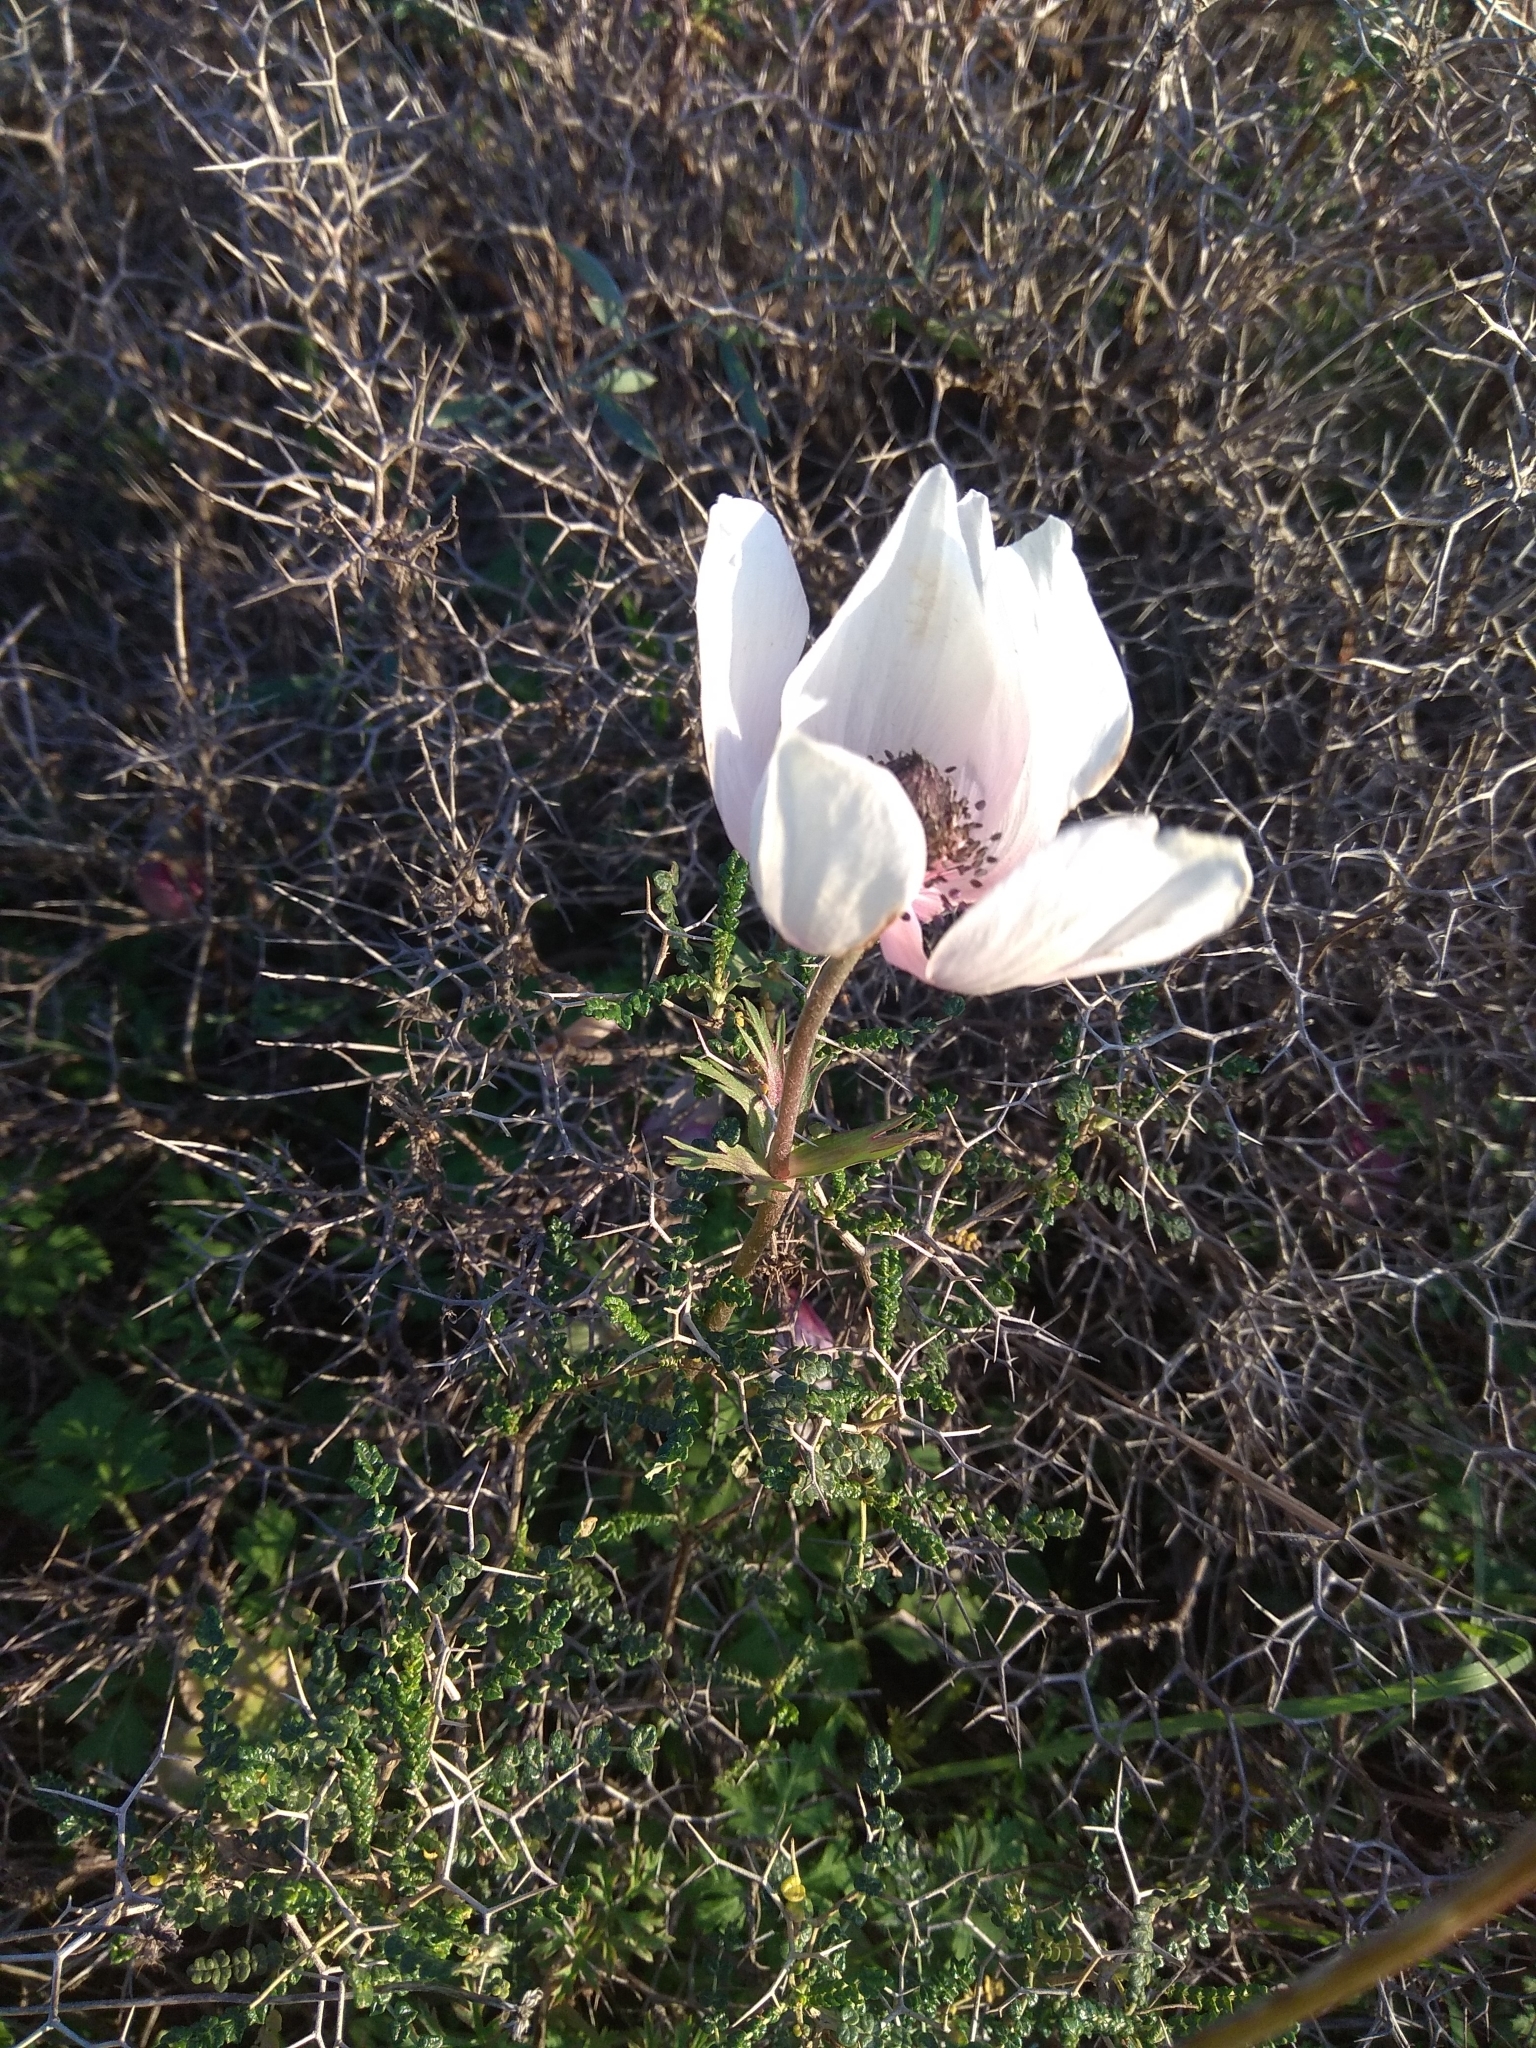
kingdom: Plantae
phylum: Tracheophyta
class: Magnoliopsida
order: Ranunculales
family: Ranunculaceae
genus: Anemone
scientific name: Anemone coronaria
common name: Poppy anemone
